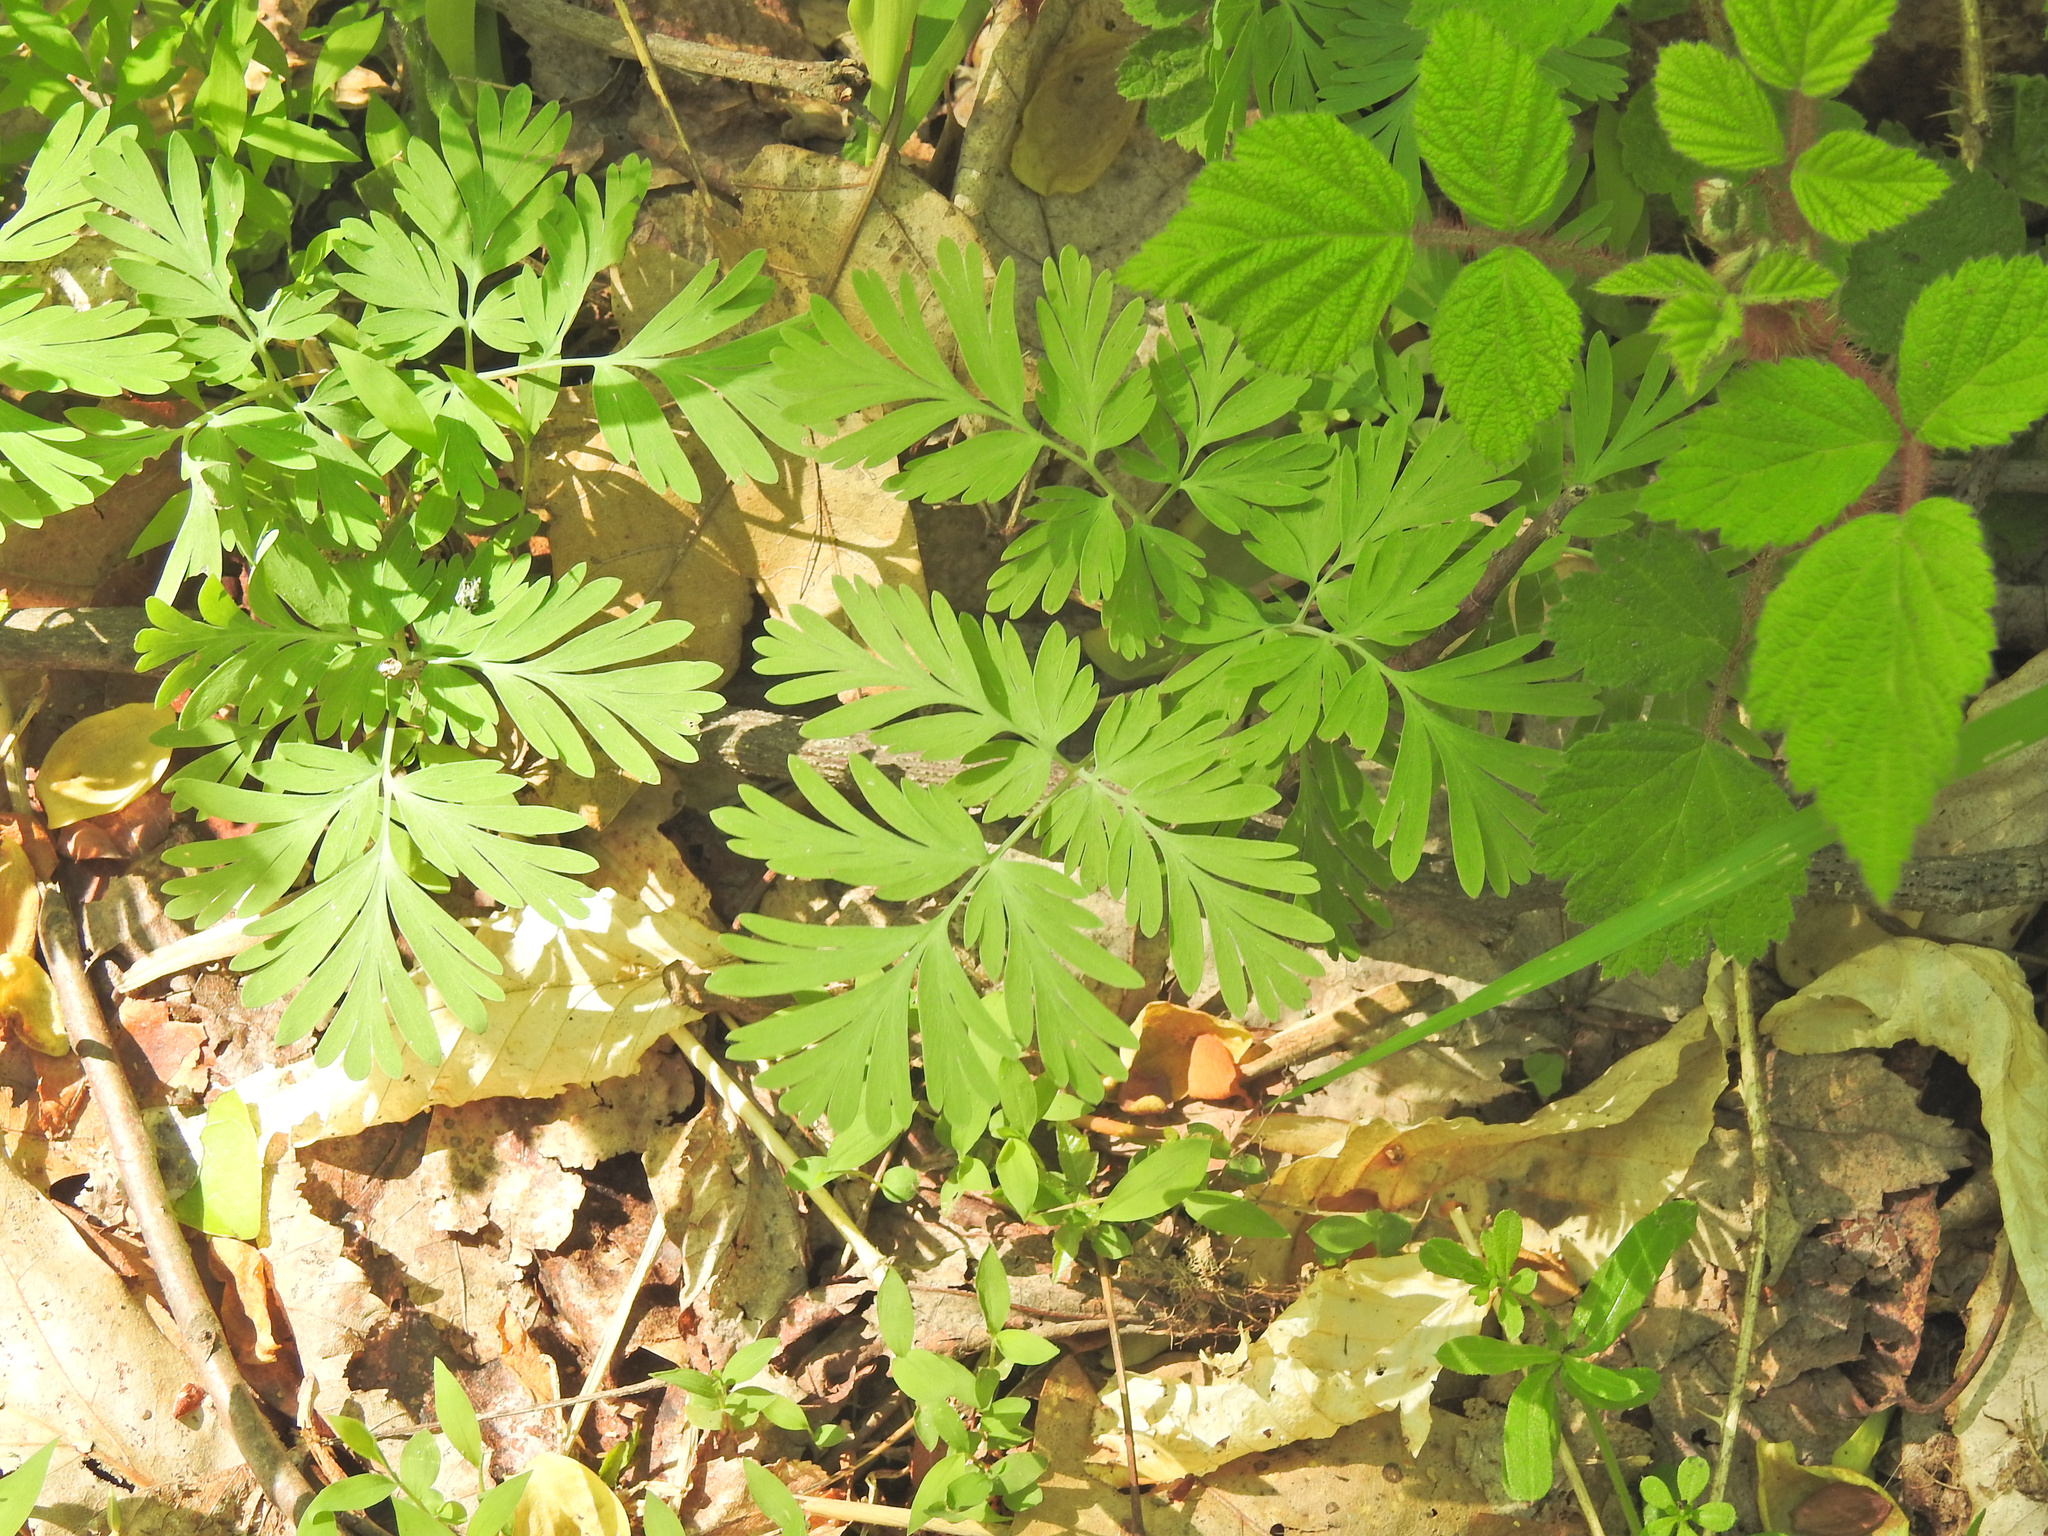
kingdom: Plantae
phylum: Tracheophyta
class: Magnoliopsida
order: Ranunculales
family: Papaveraceae
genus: Dicentra
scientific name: Dicentra cucullaria
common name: Dutchman's breeches
